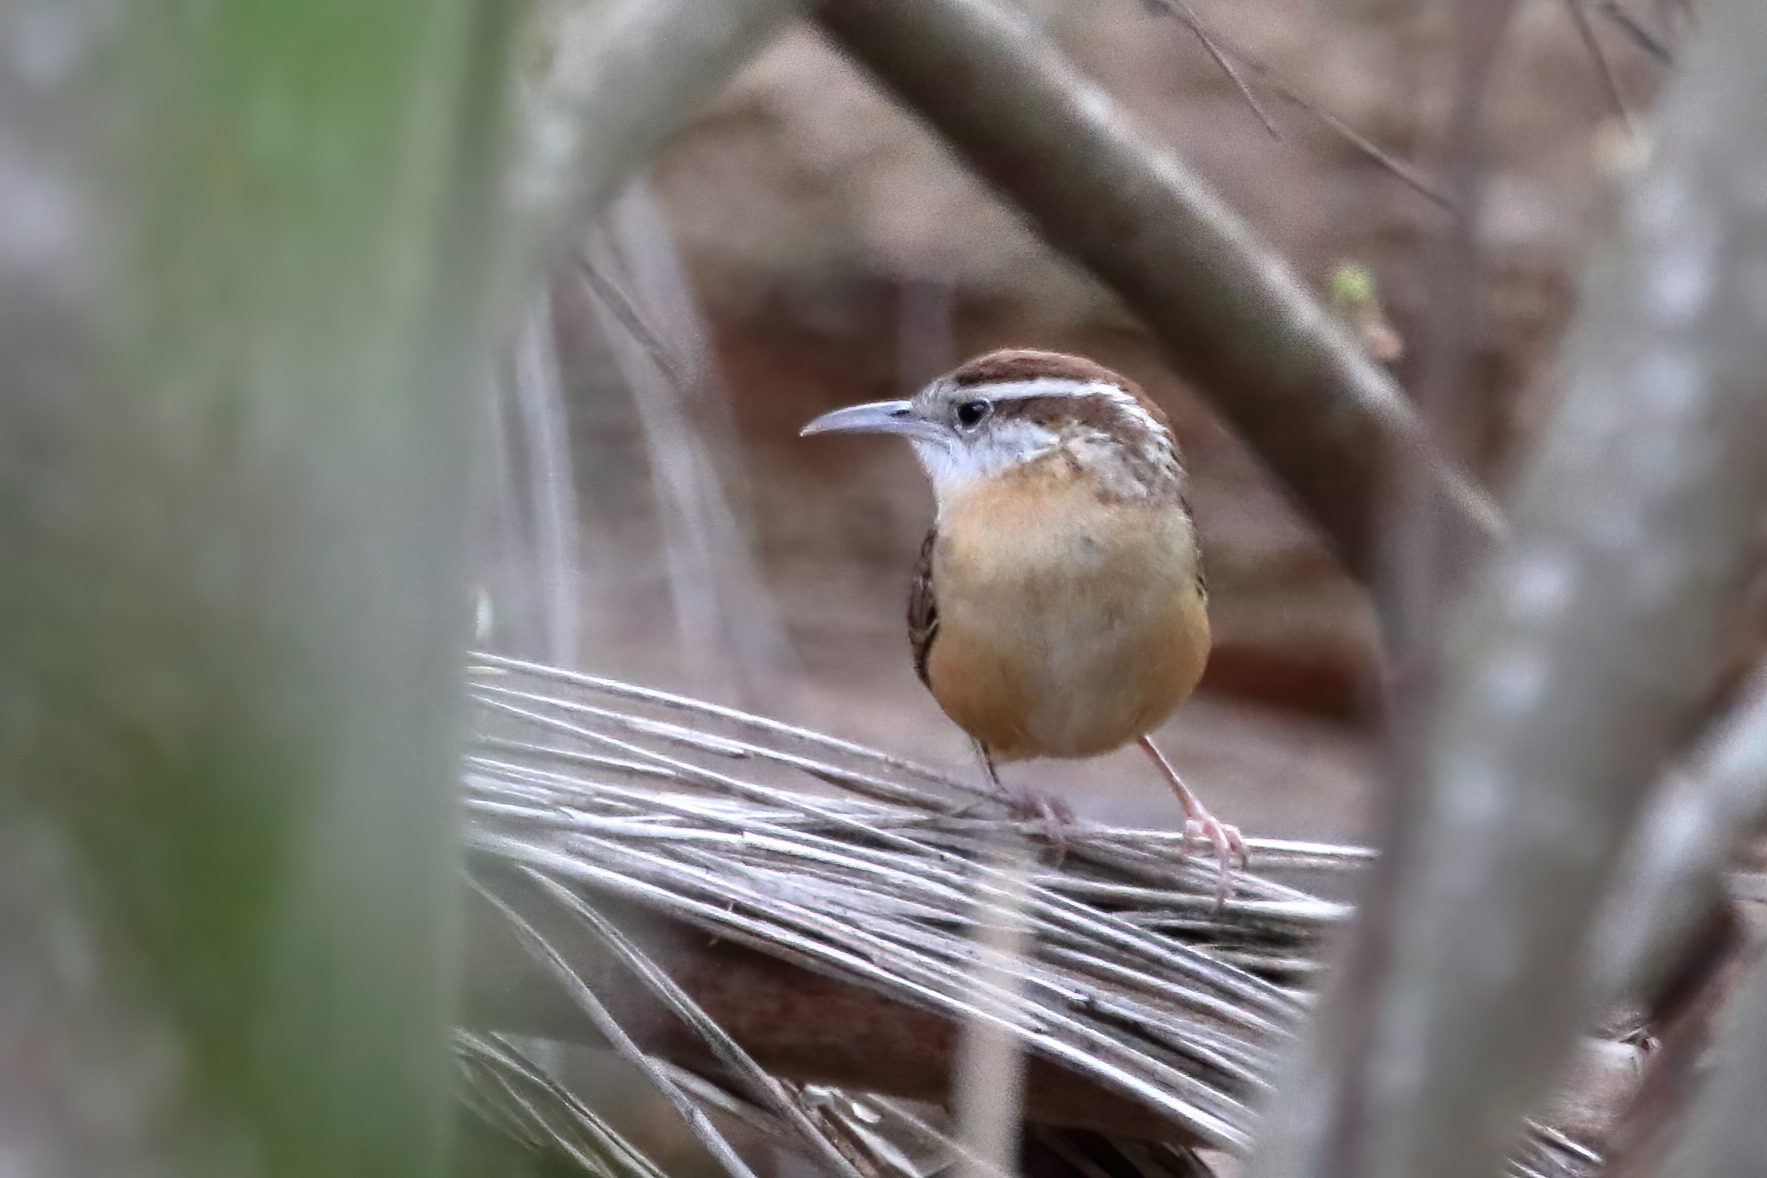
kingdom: Animalia
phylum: Chordata
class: Aves
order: Passeriformes
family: Troglodytidae
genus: Thryothorus
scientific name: Thryothorus ludovicianus
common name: Carolina wren
